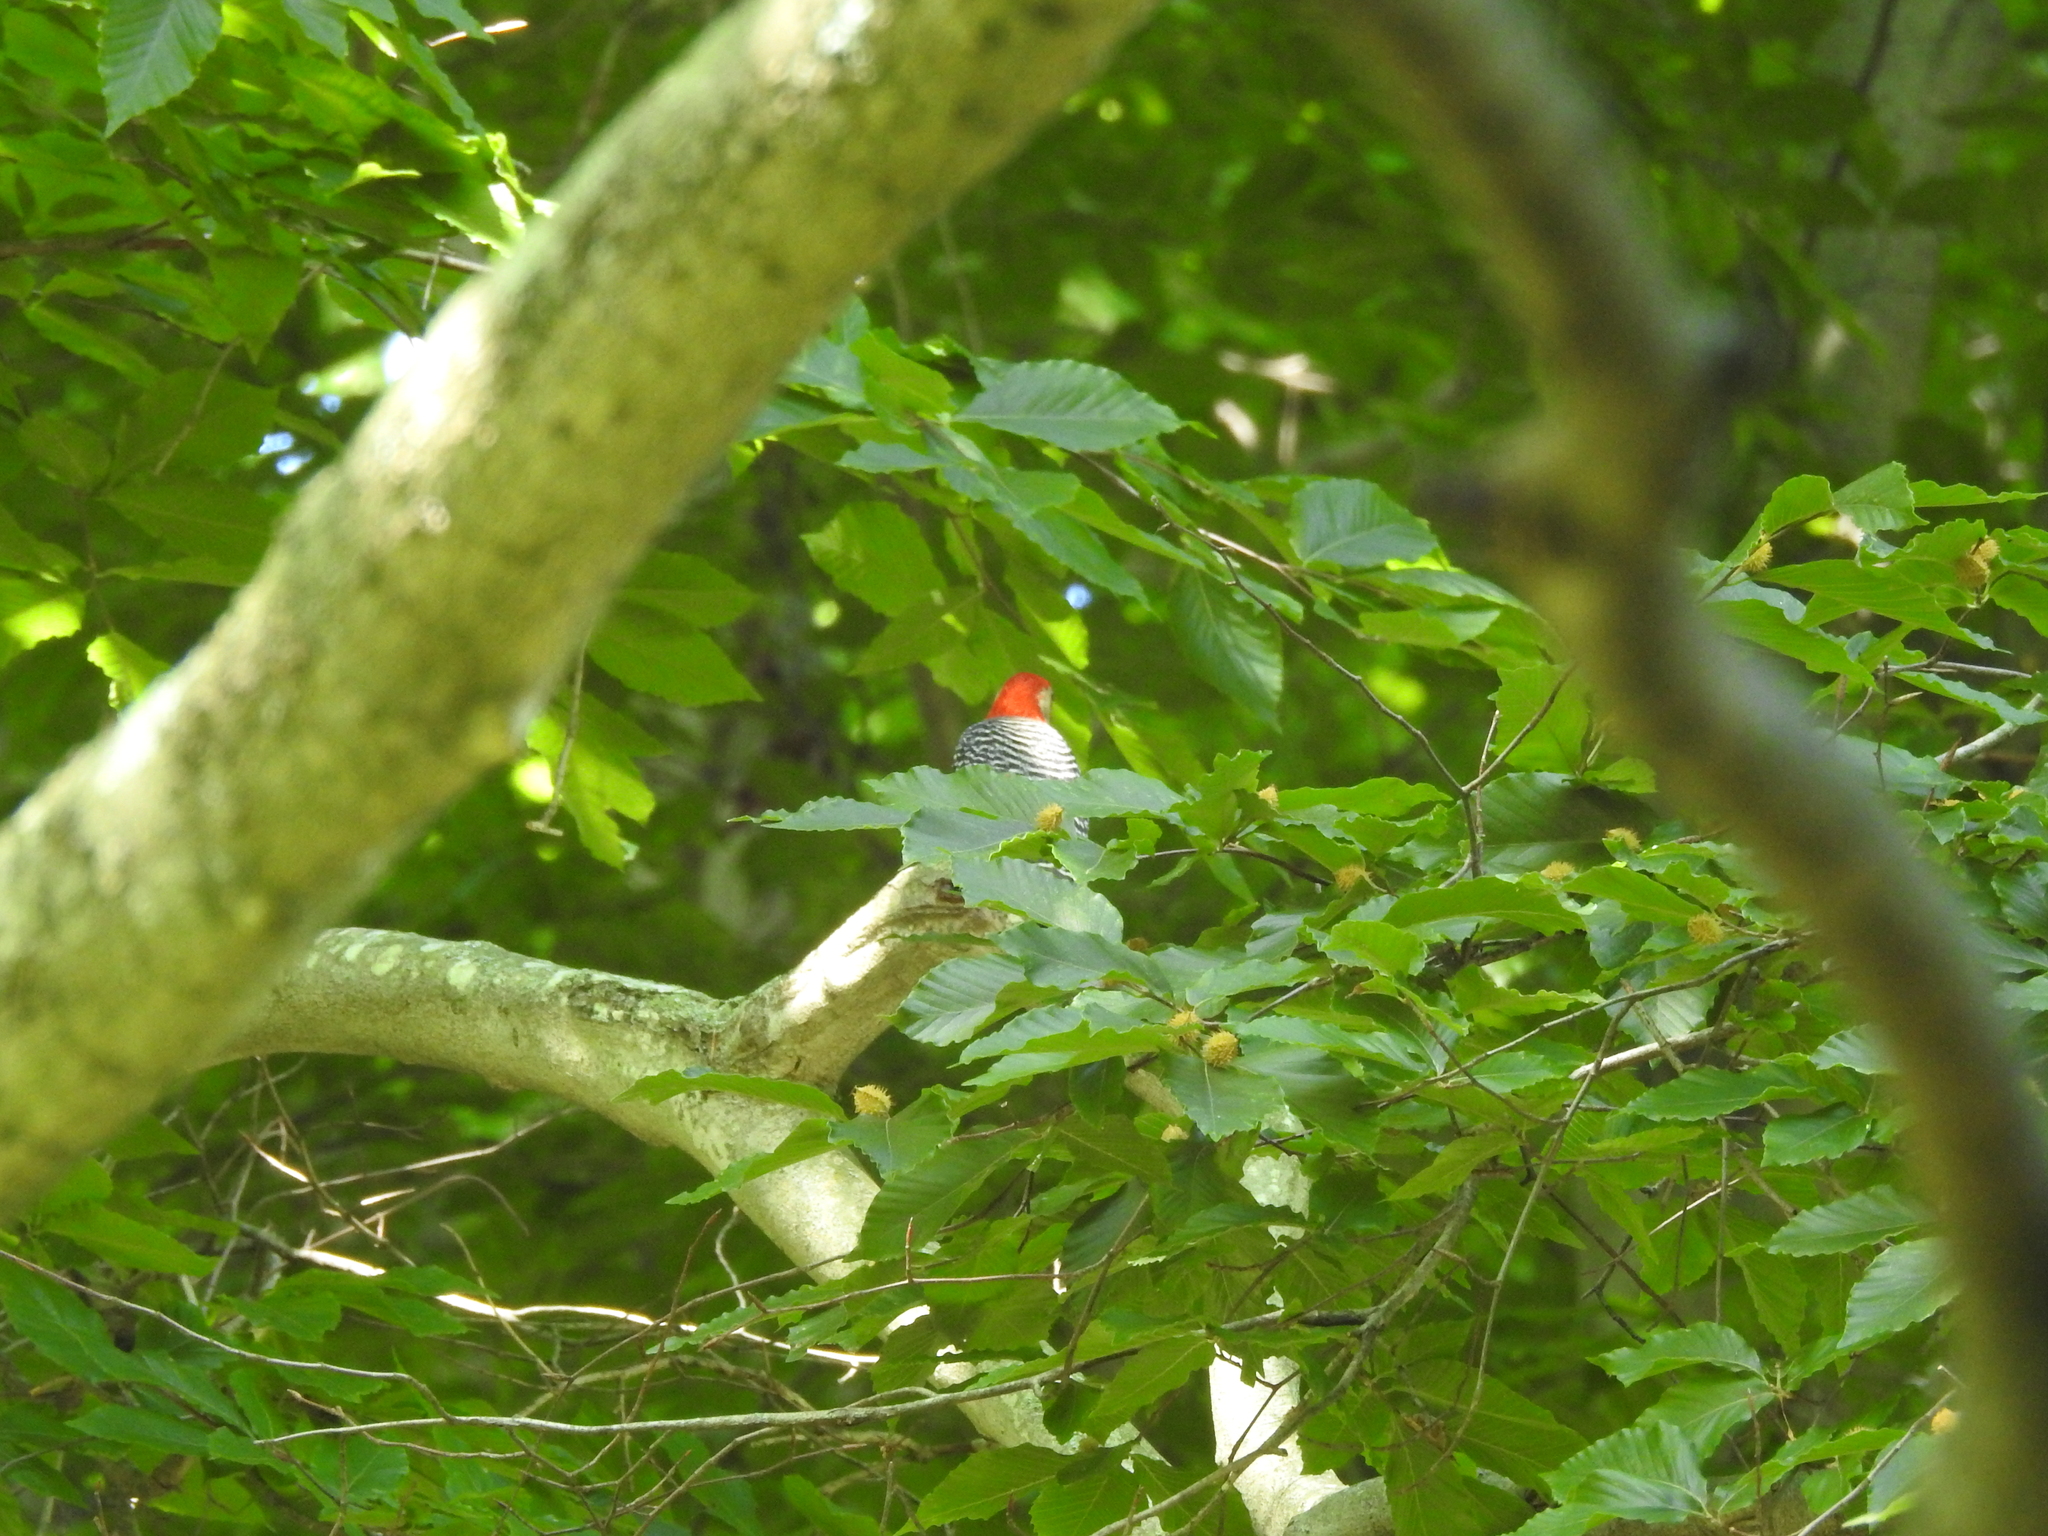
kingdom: Animalia
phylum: Chordata
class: Aves
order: Piciformes
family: Picidae
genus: Melanerpes
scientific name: Melanerpes carolinus
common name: Red-bellied woodpecker
